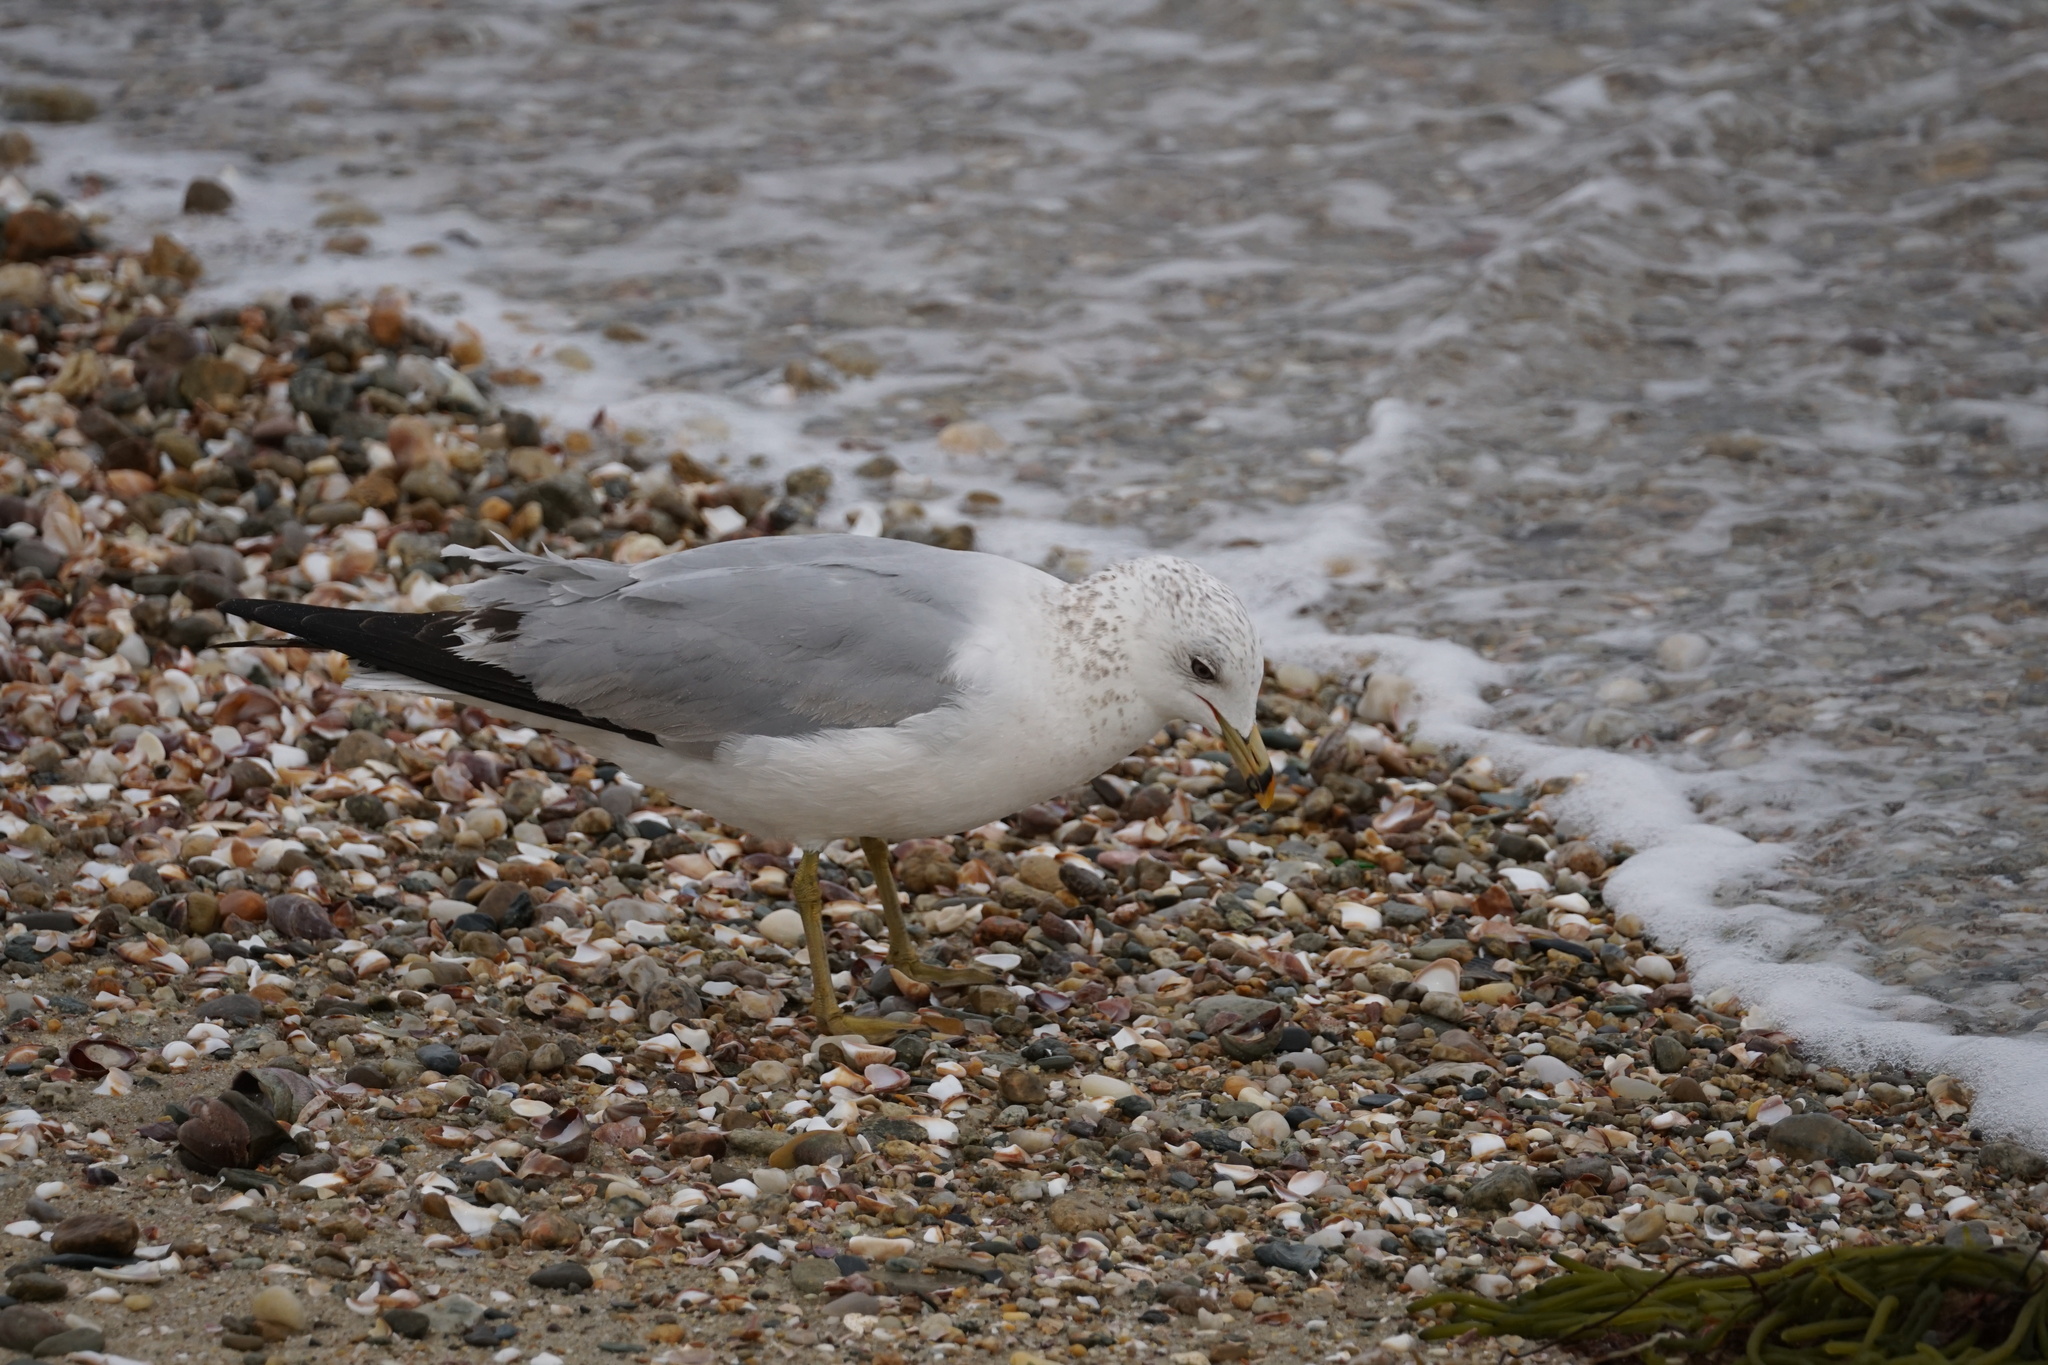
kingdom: Animalia
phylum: Chordata
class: Aves
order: Charadriiformes
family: Laridae
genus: Larus
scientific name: Larus delawarensis
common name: Ring-billed gull
